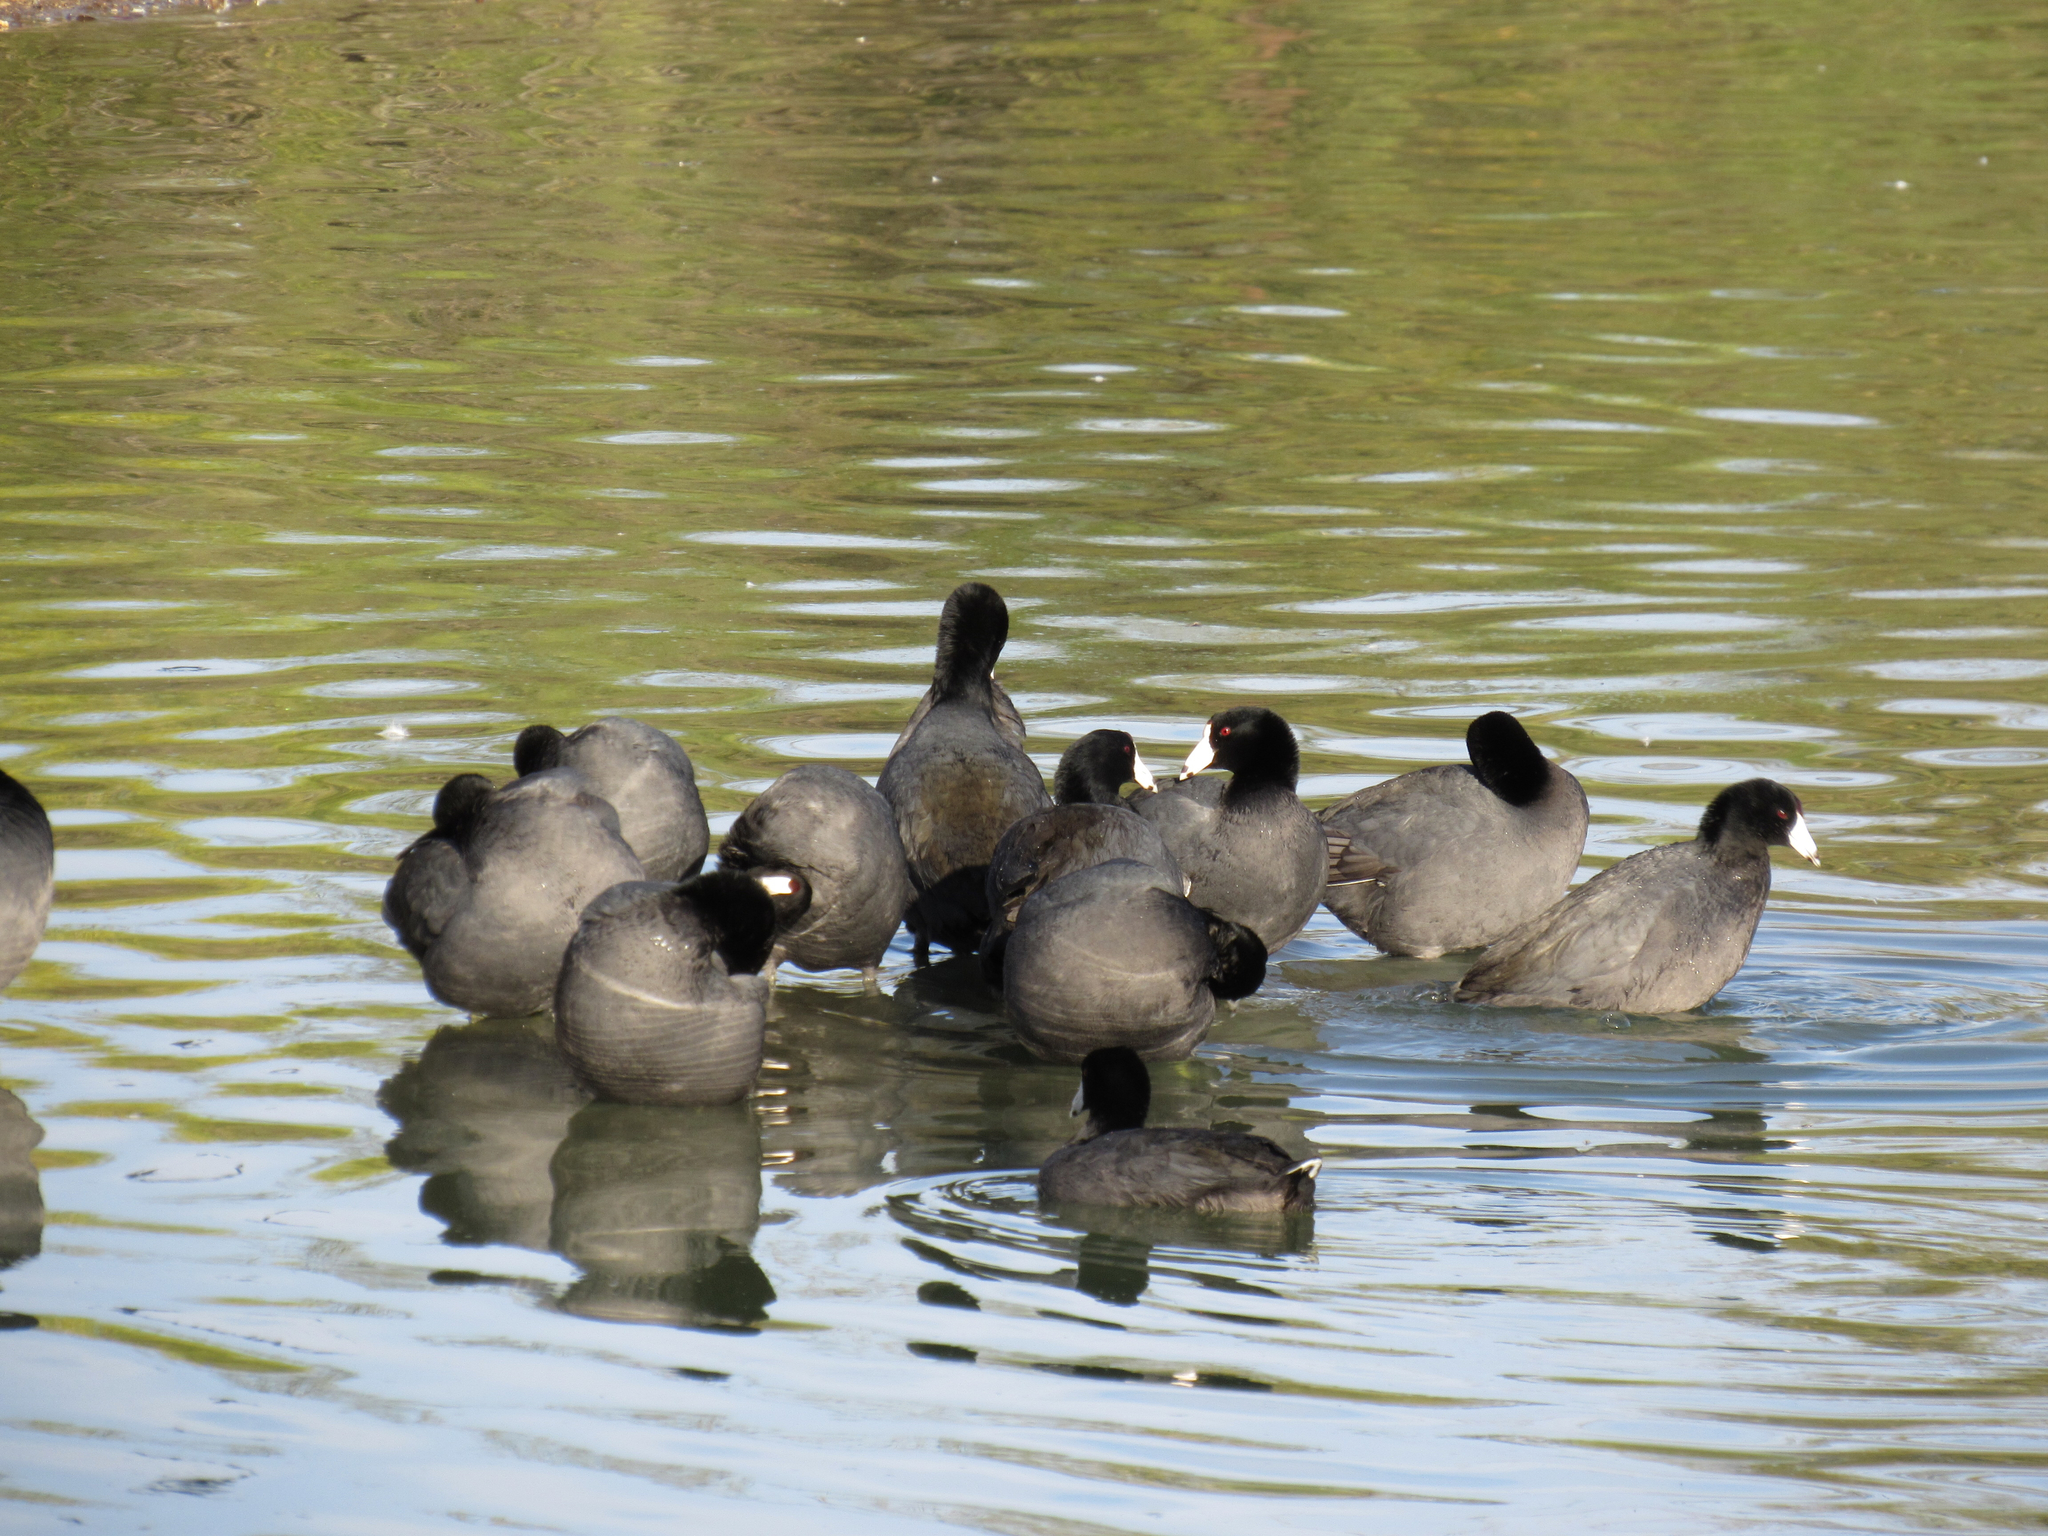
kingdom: Animalia
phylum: Chordata
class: Aves
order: Gruiformes
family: Rallidae
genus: Fulica
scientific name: Fulica americana
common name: American coot
